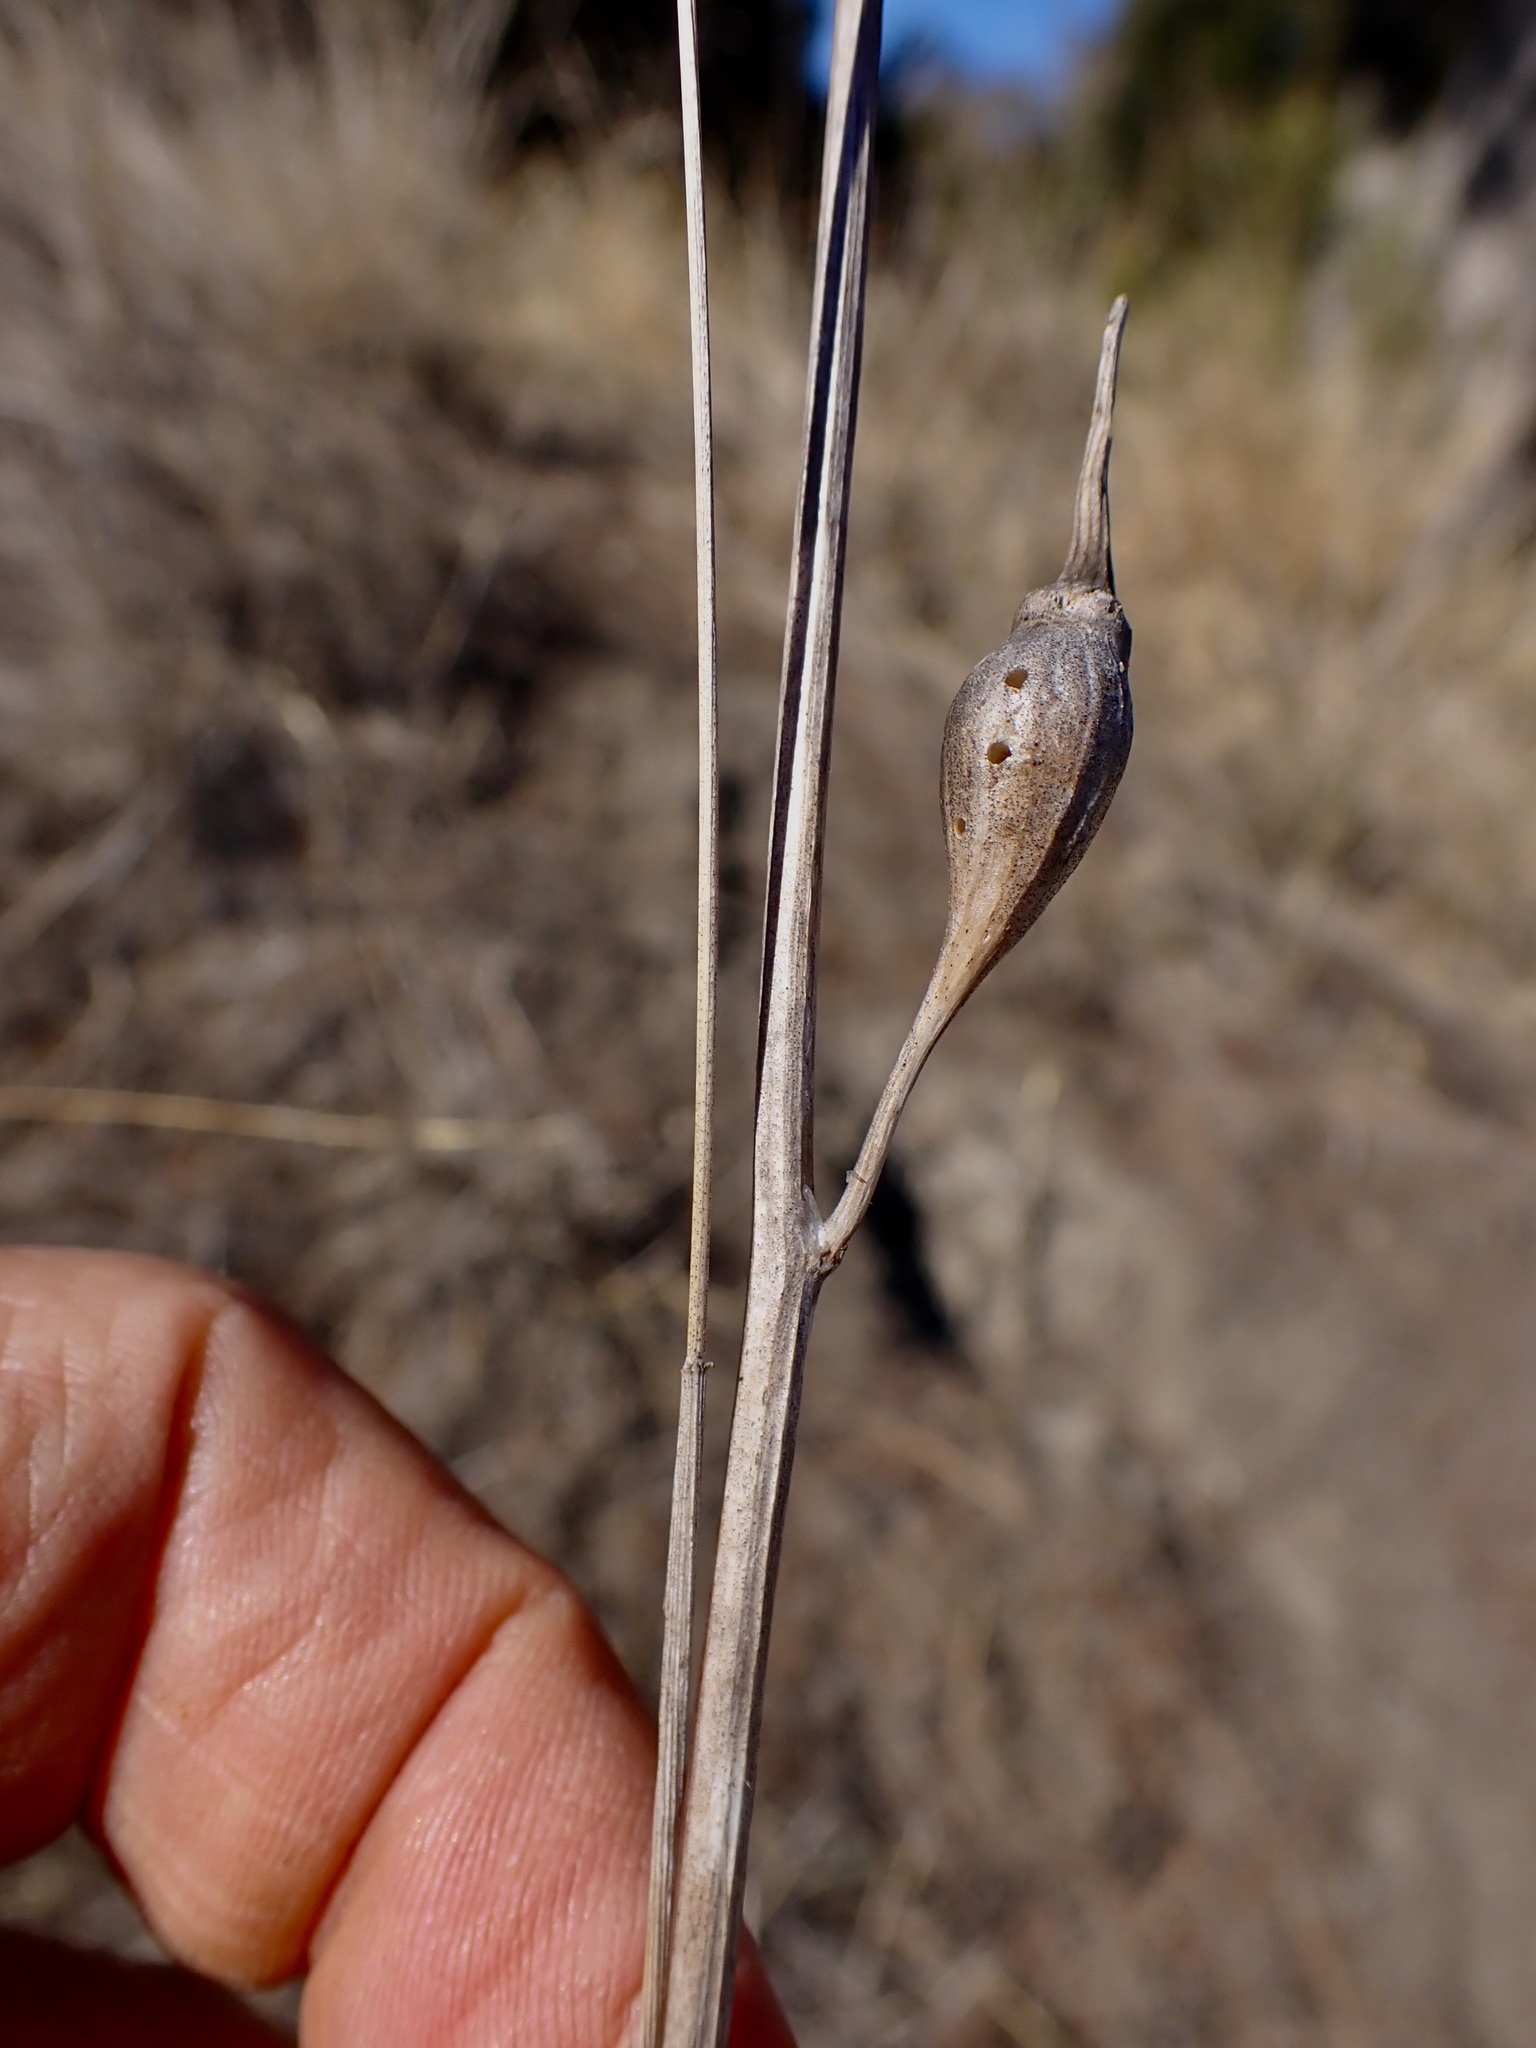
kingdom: Animalia
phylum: Arthropoda
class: Insecta
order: Diptera
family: Tephritidae
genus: Urophora
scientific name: Urophora cardui
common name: Fruit fly
